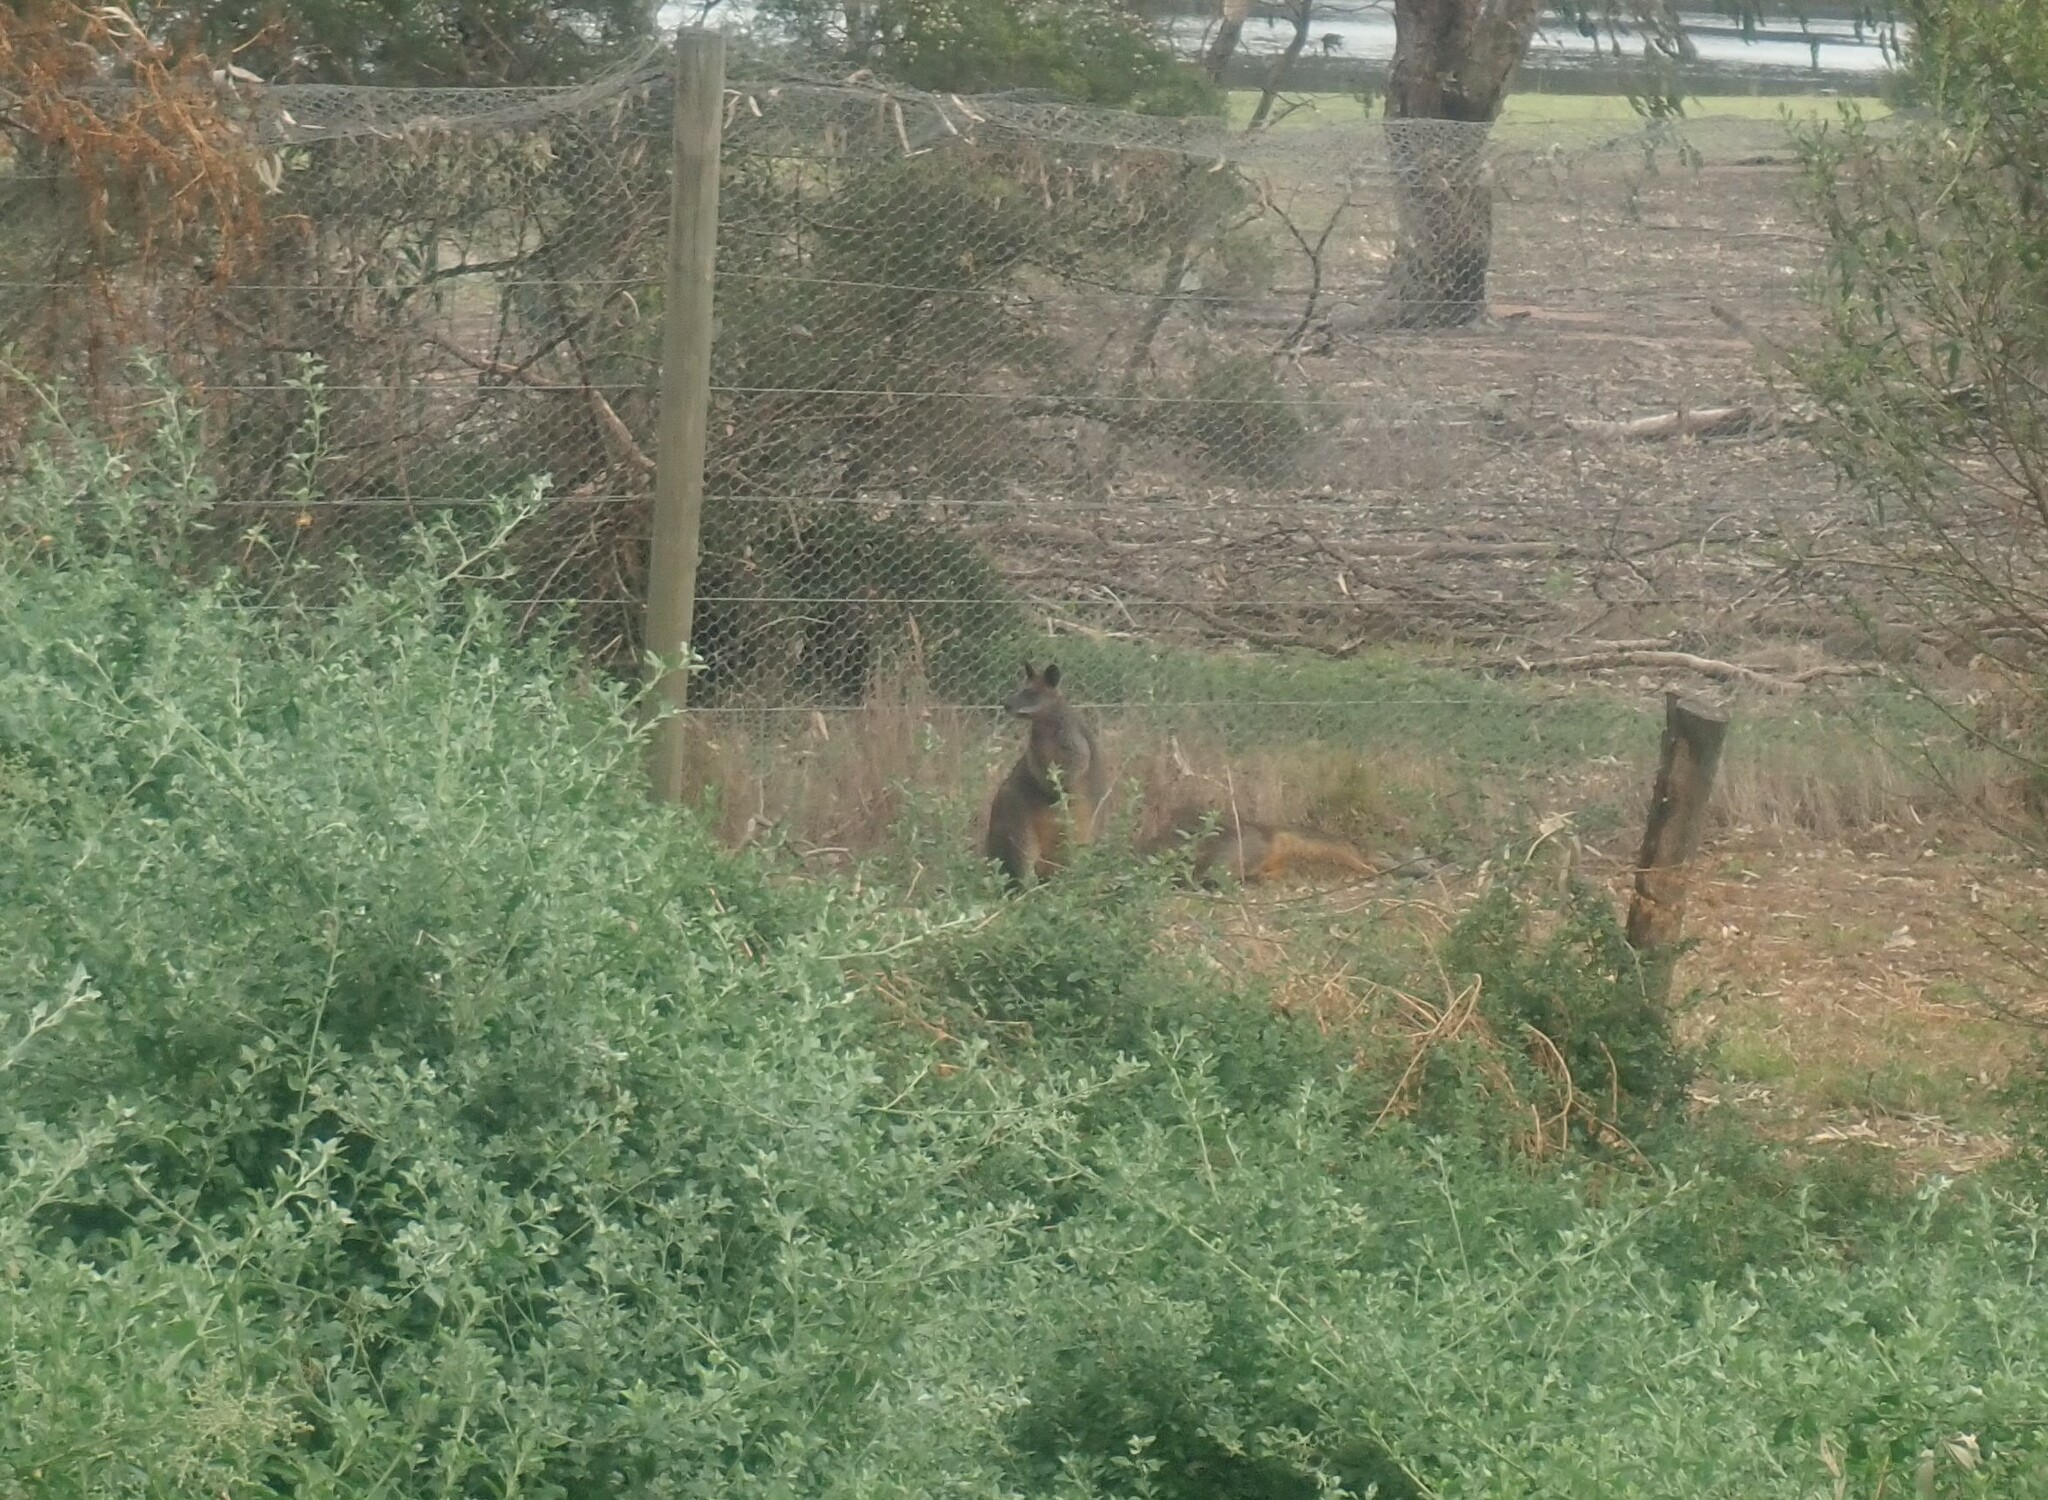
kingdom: Animalia
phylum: Chordata
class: Mammalia
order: Diprotodontia
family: Macropodidae
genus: Wallabia
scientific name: Wallabia bicolor
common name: Swamp wallaby
